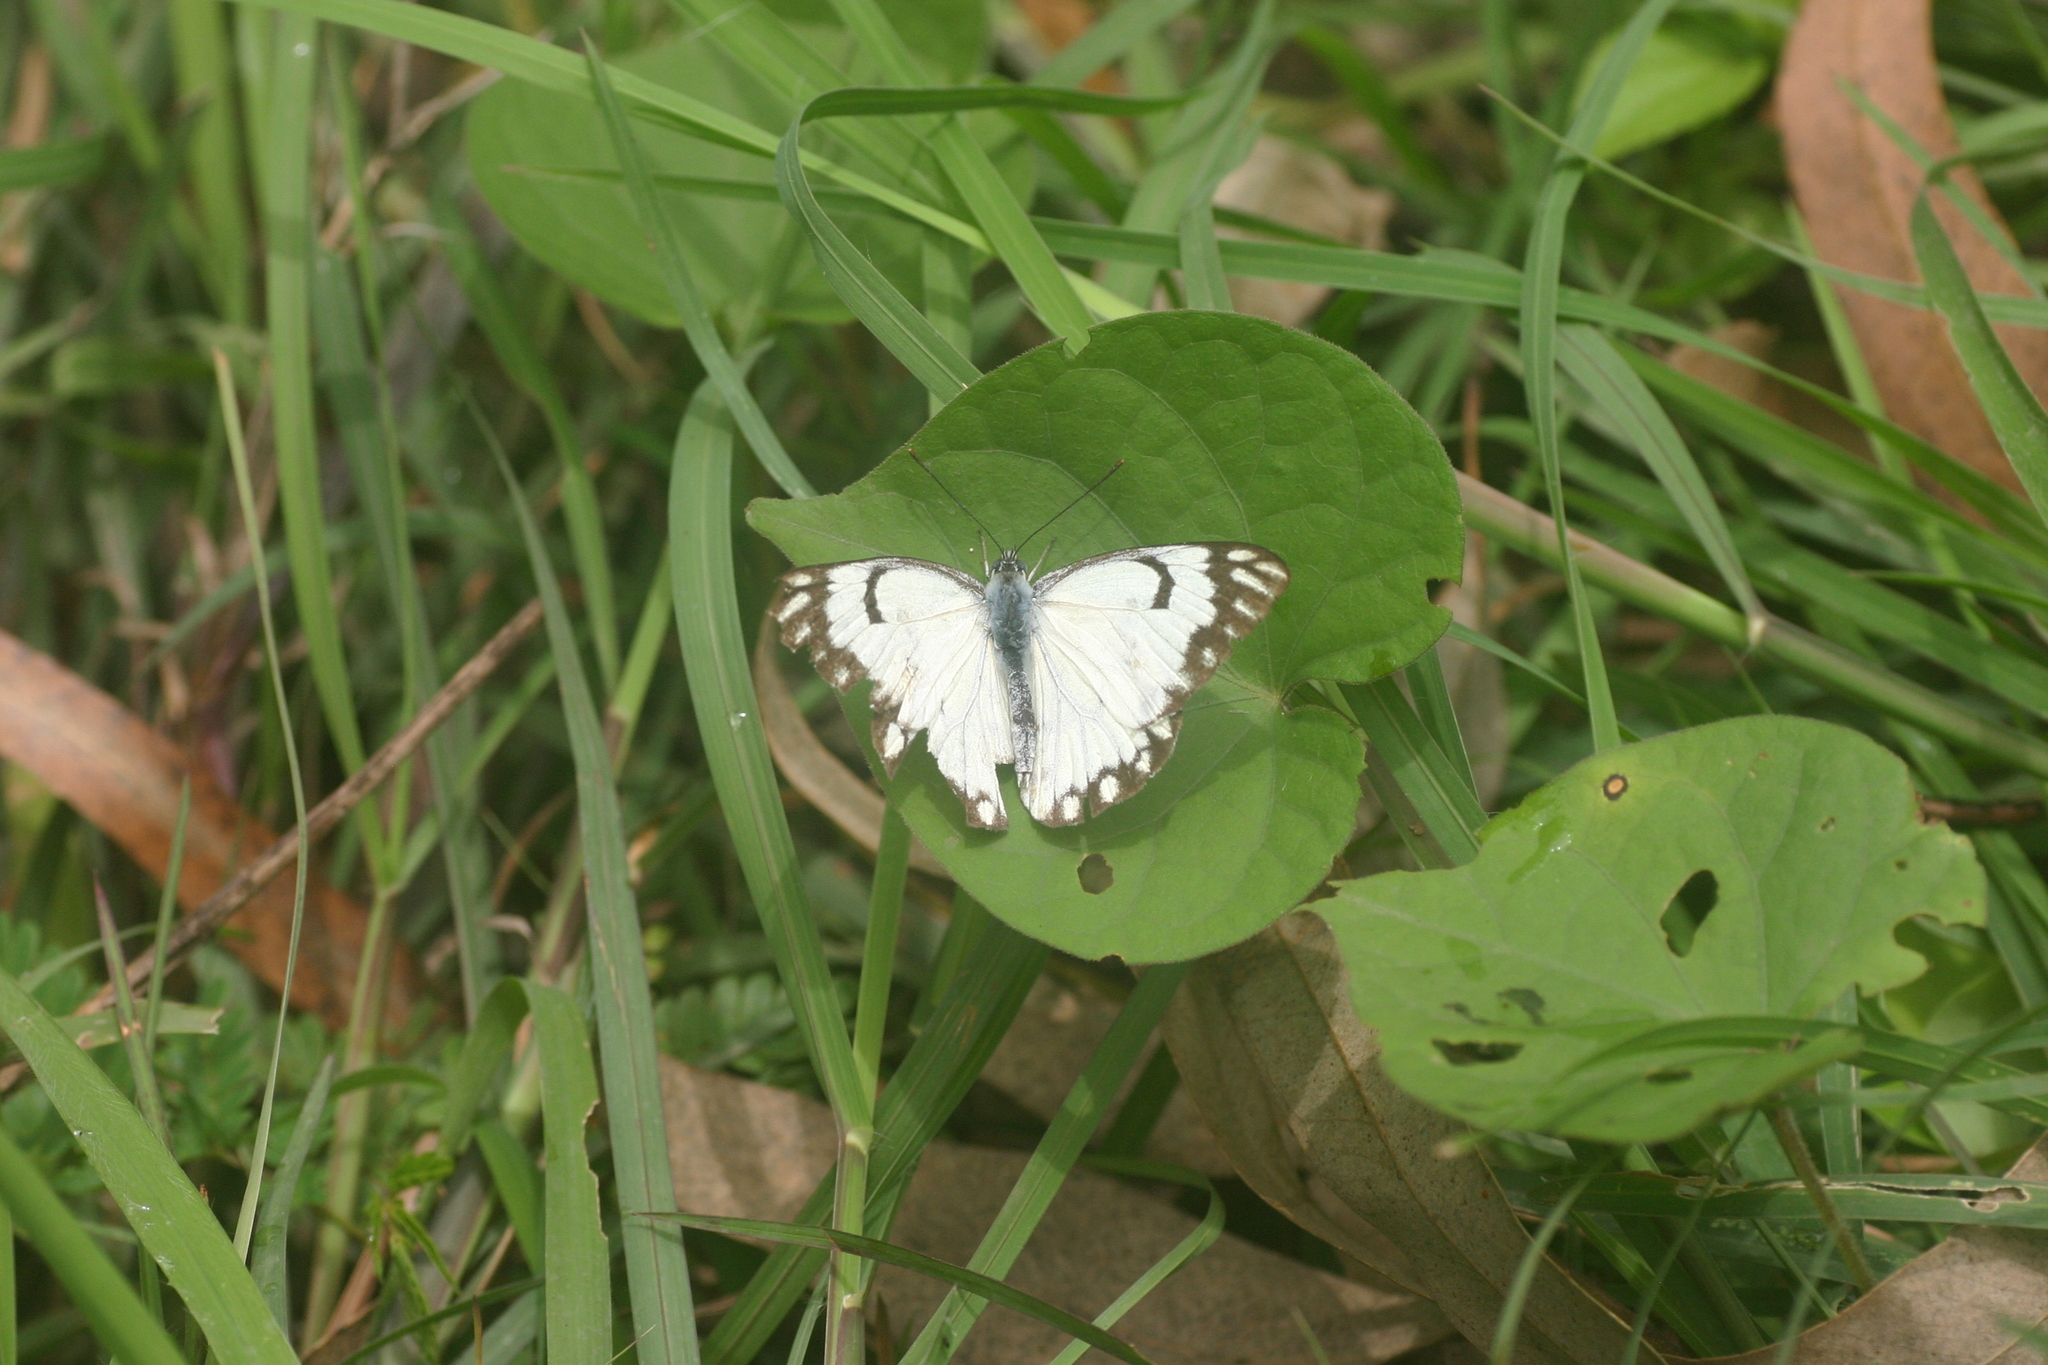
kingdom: Animalia
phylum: Arthropoda
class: Insecta
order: Lepidoptera
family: Pieridae
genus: Belenois
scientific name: Belenois aurota
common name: Brown-veined white
